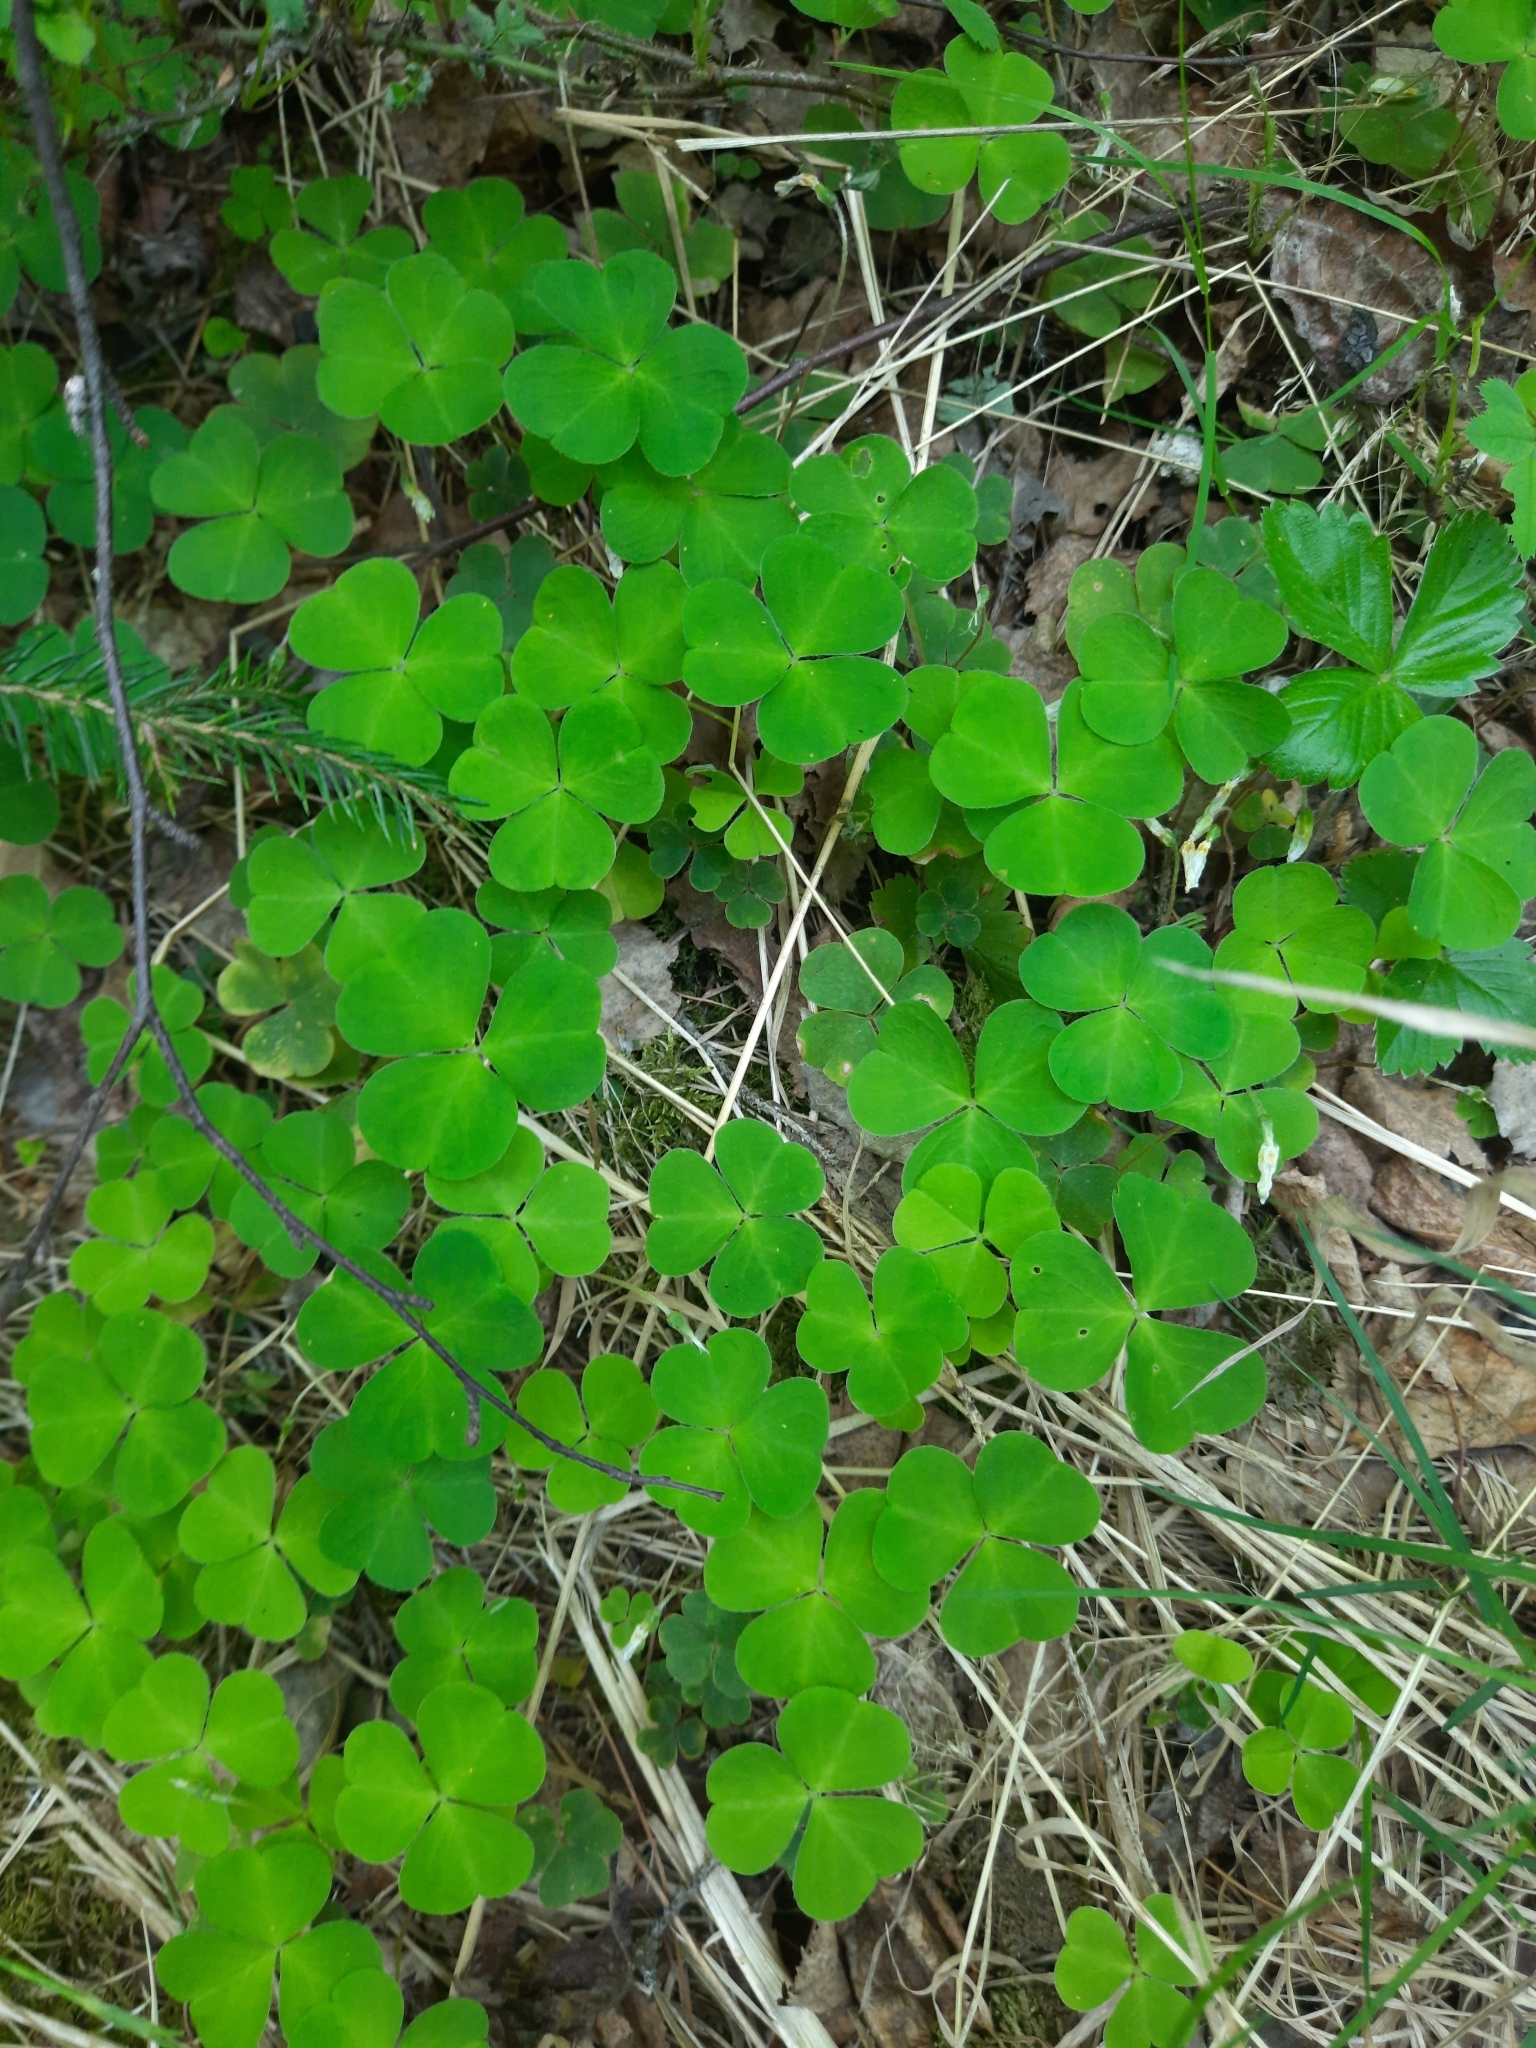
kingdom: Plantae
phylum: Tracheophyta
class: Magnoliopsida
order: Oxalidales
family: Oxalidaceae
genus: Oxalis
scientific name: Oxalis acetosella
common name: Wood-sorrel
